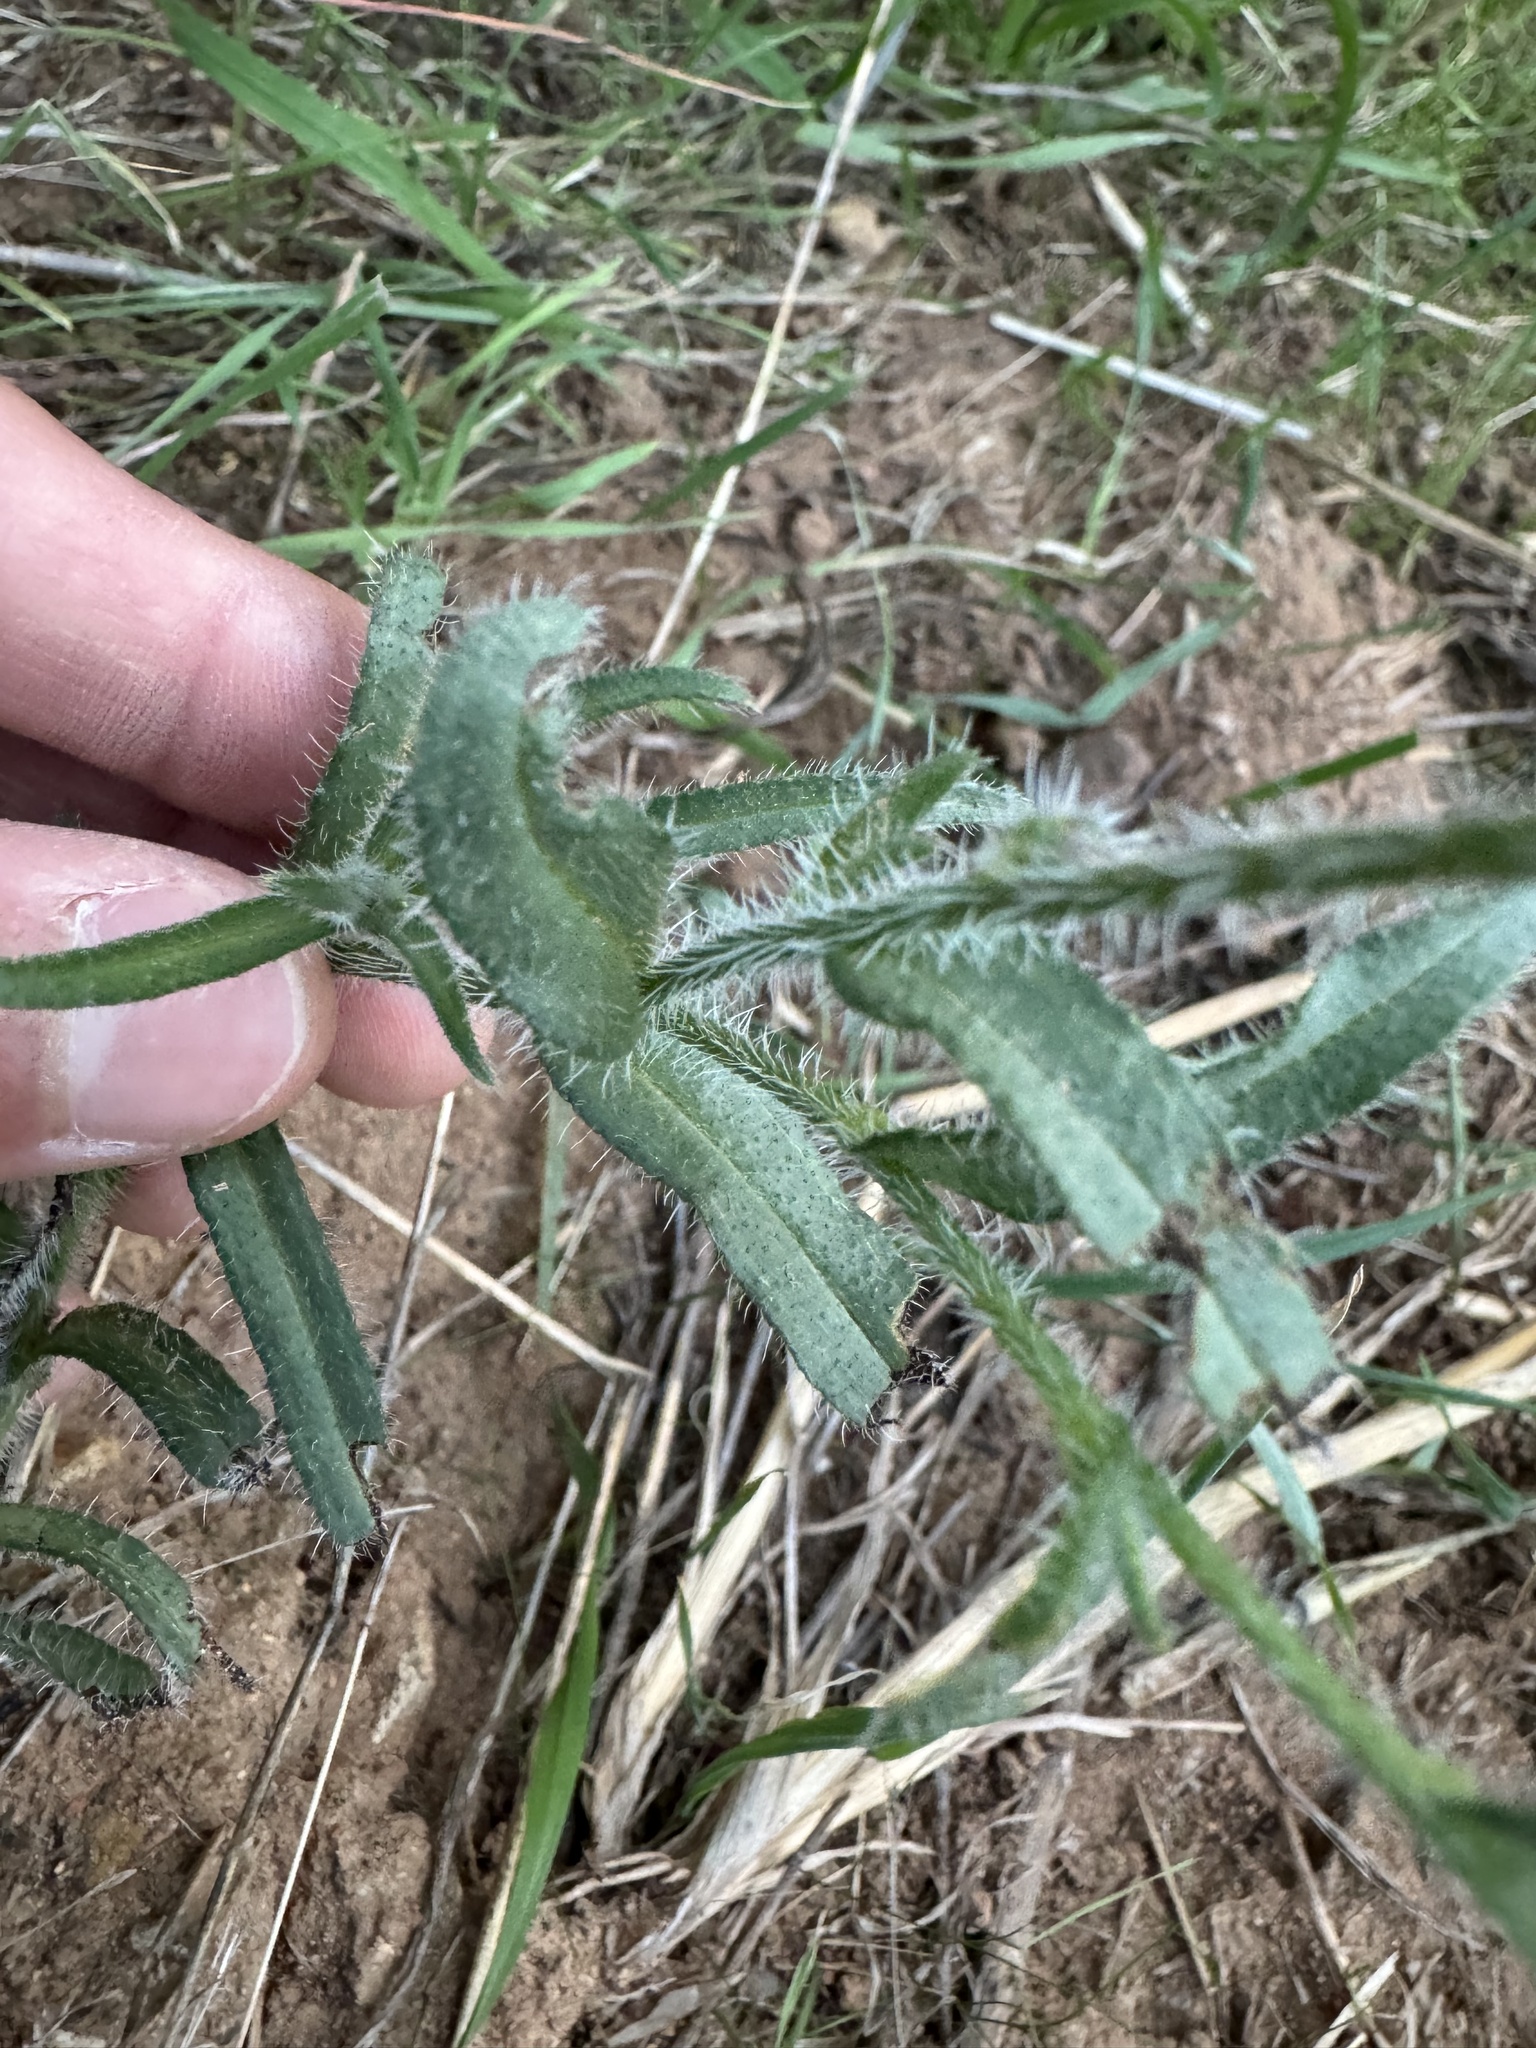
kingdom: Plantae
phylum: Tracheophyta
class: Magnoliopsida
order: Boraginales
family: Boraginaceae
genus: Amsinckia
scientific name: Amsinckia menziesii
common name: Menzies' fiddleneck
